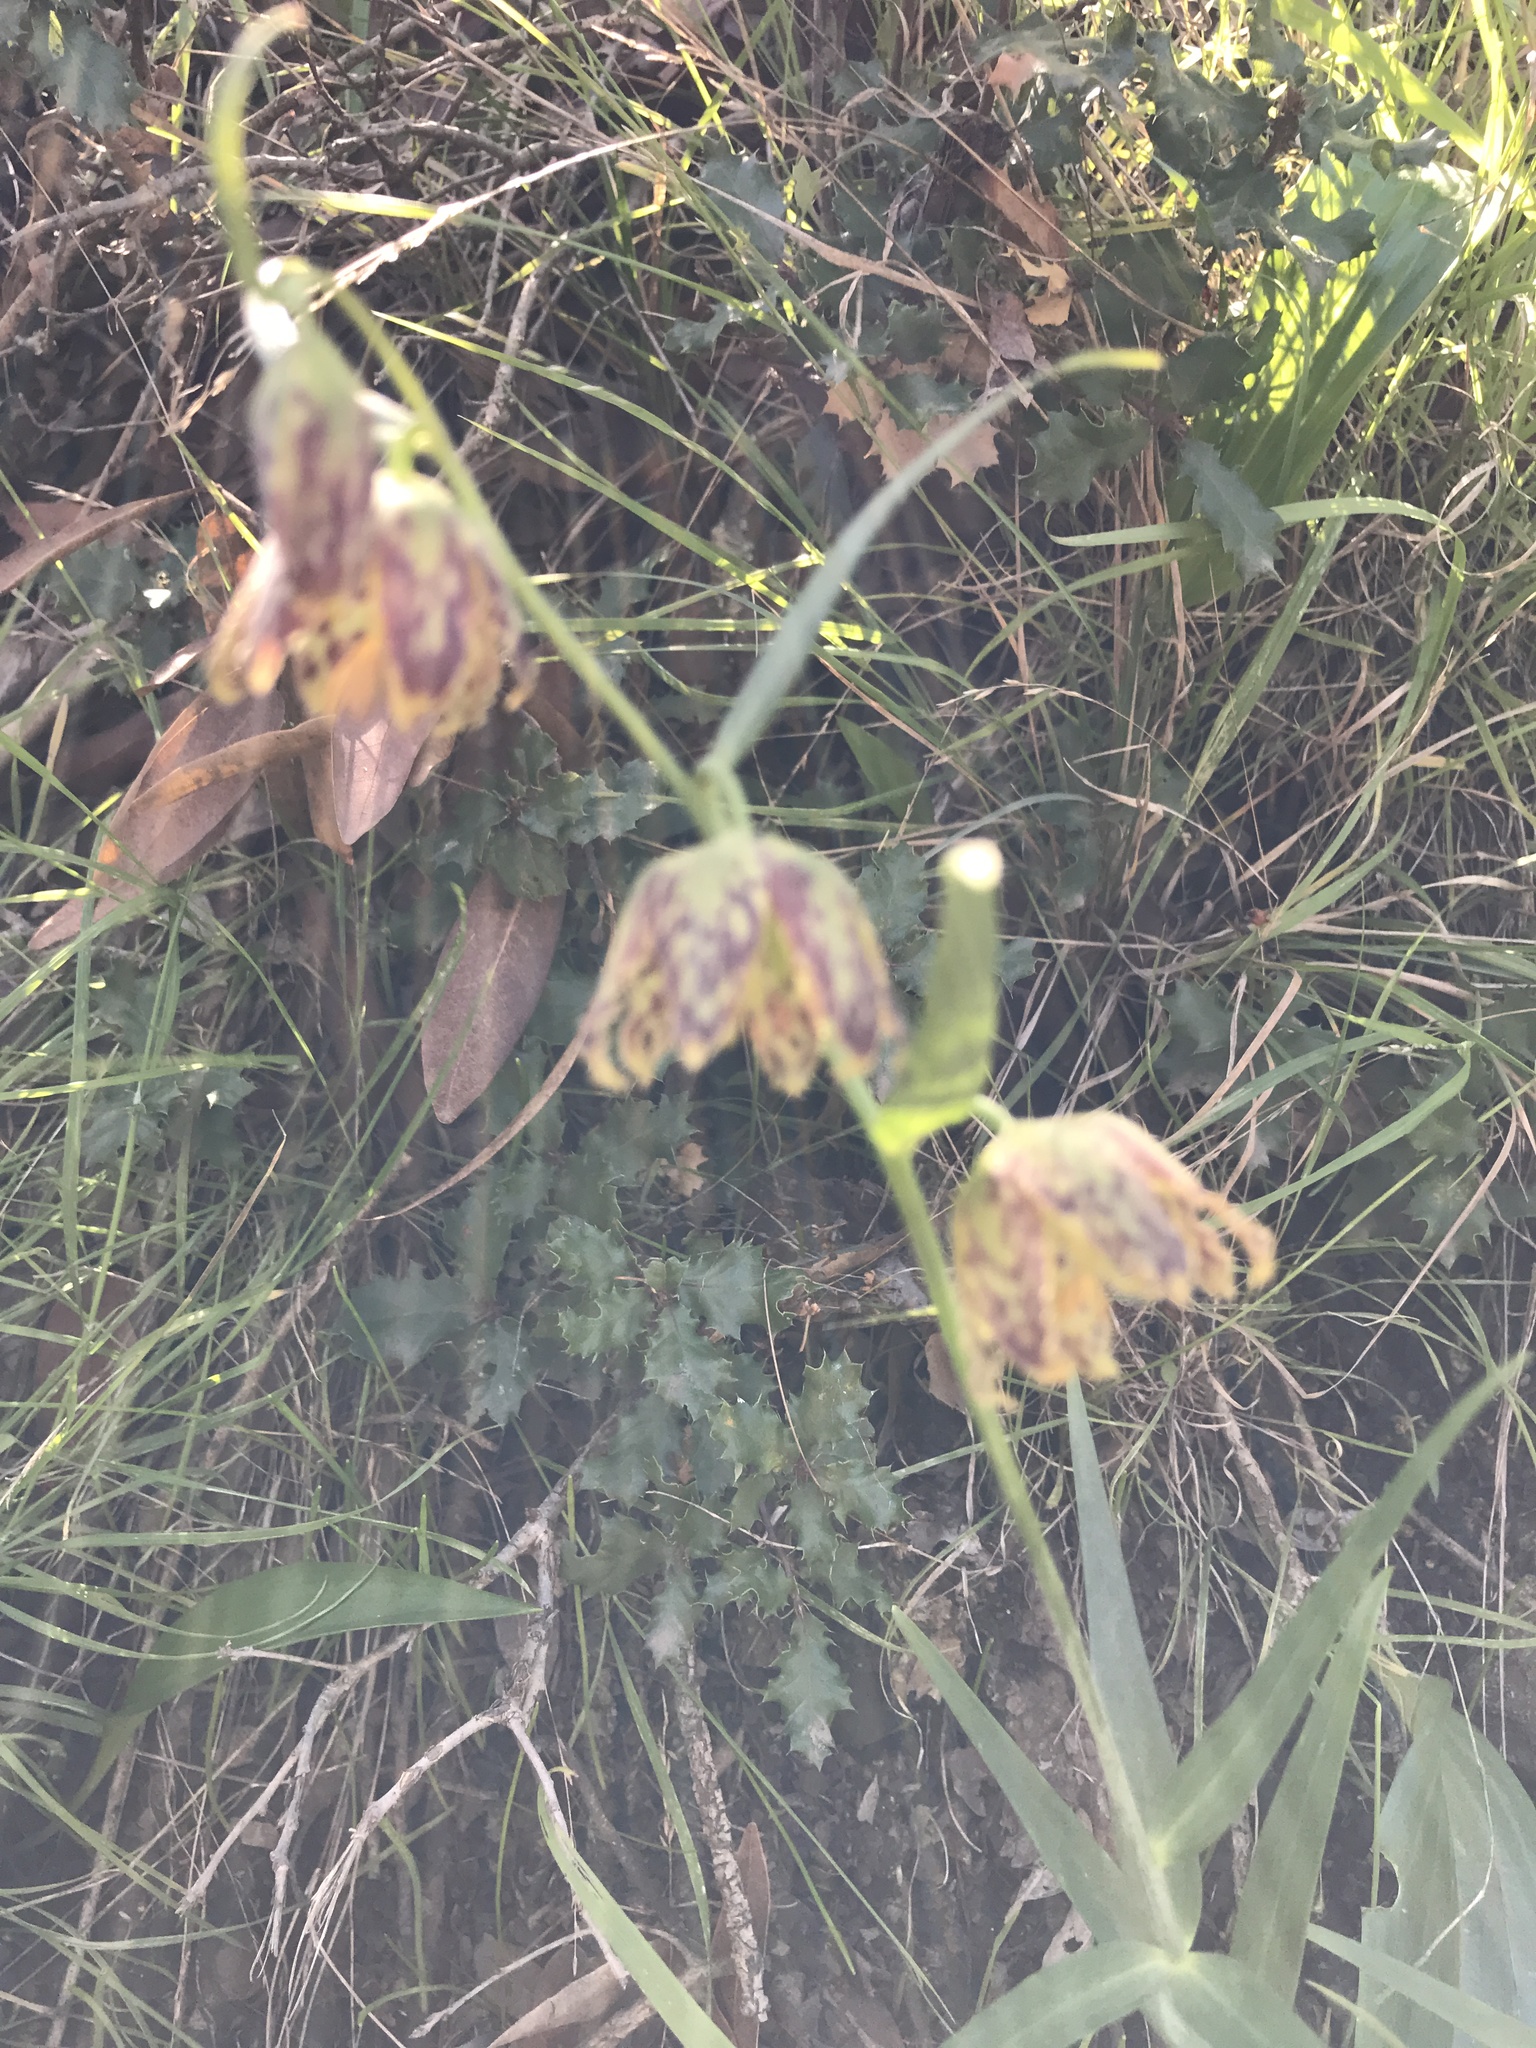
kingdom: Plantae
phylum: Tracheophyta
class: Liliopsida
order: Liliales
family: Liliaceae
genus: Fritillaria
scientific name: Fritillaria affinis
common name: Ojai fritillary
